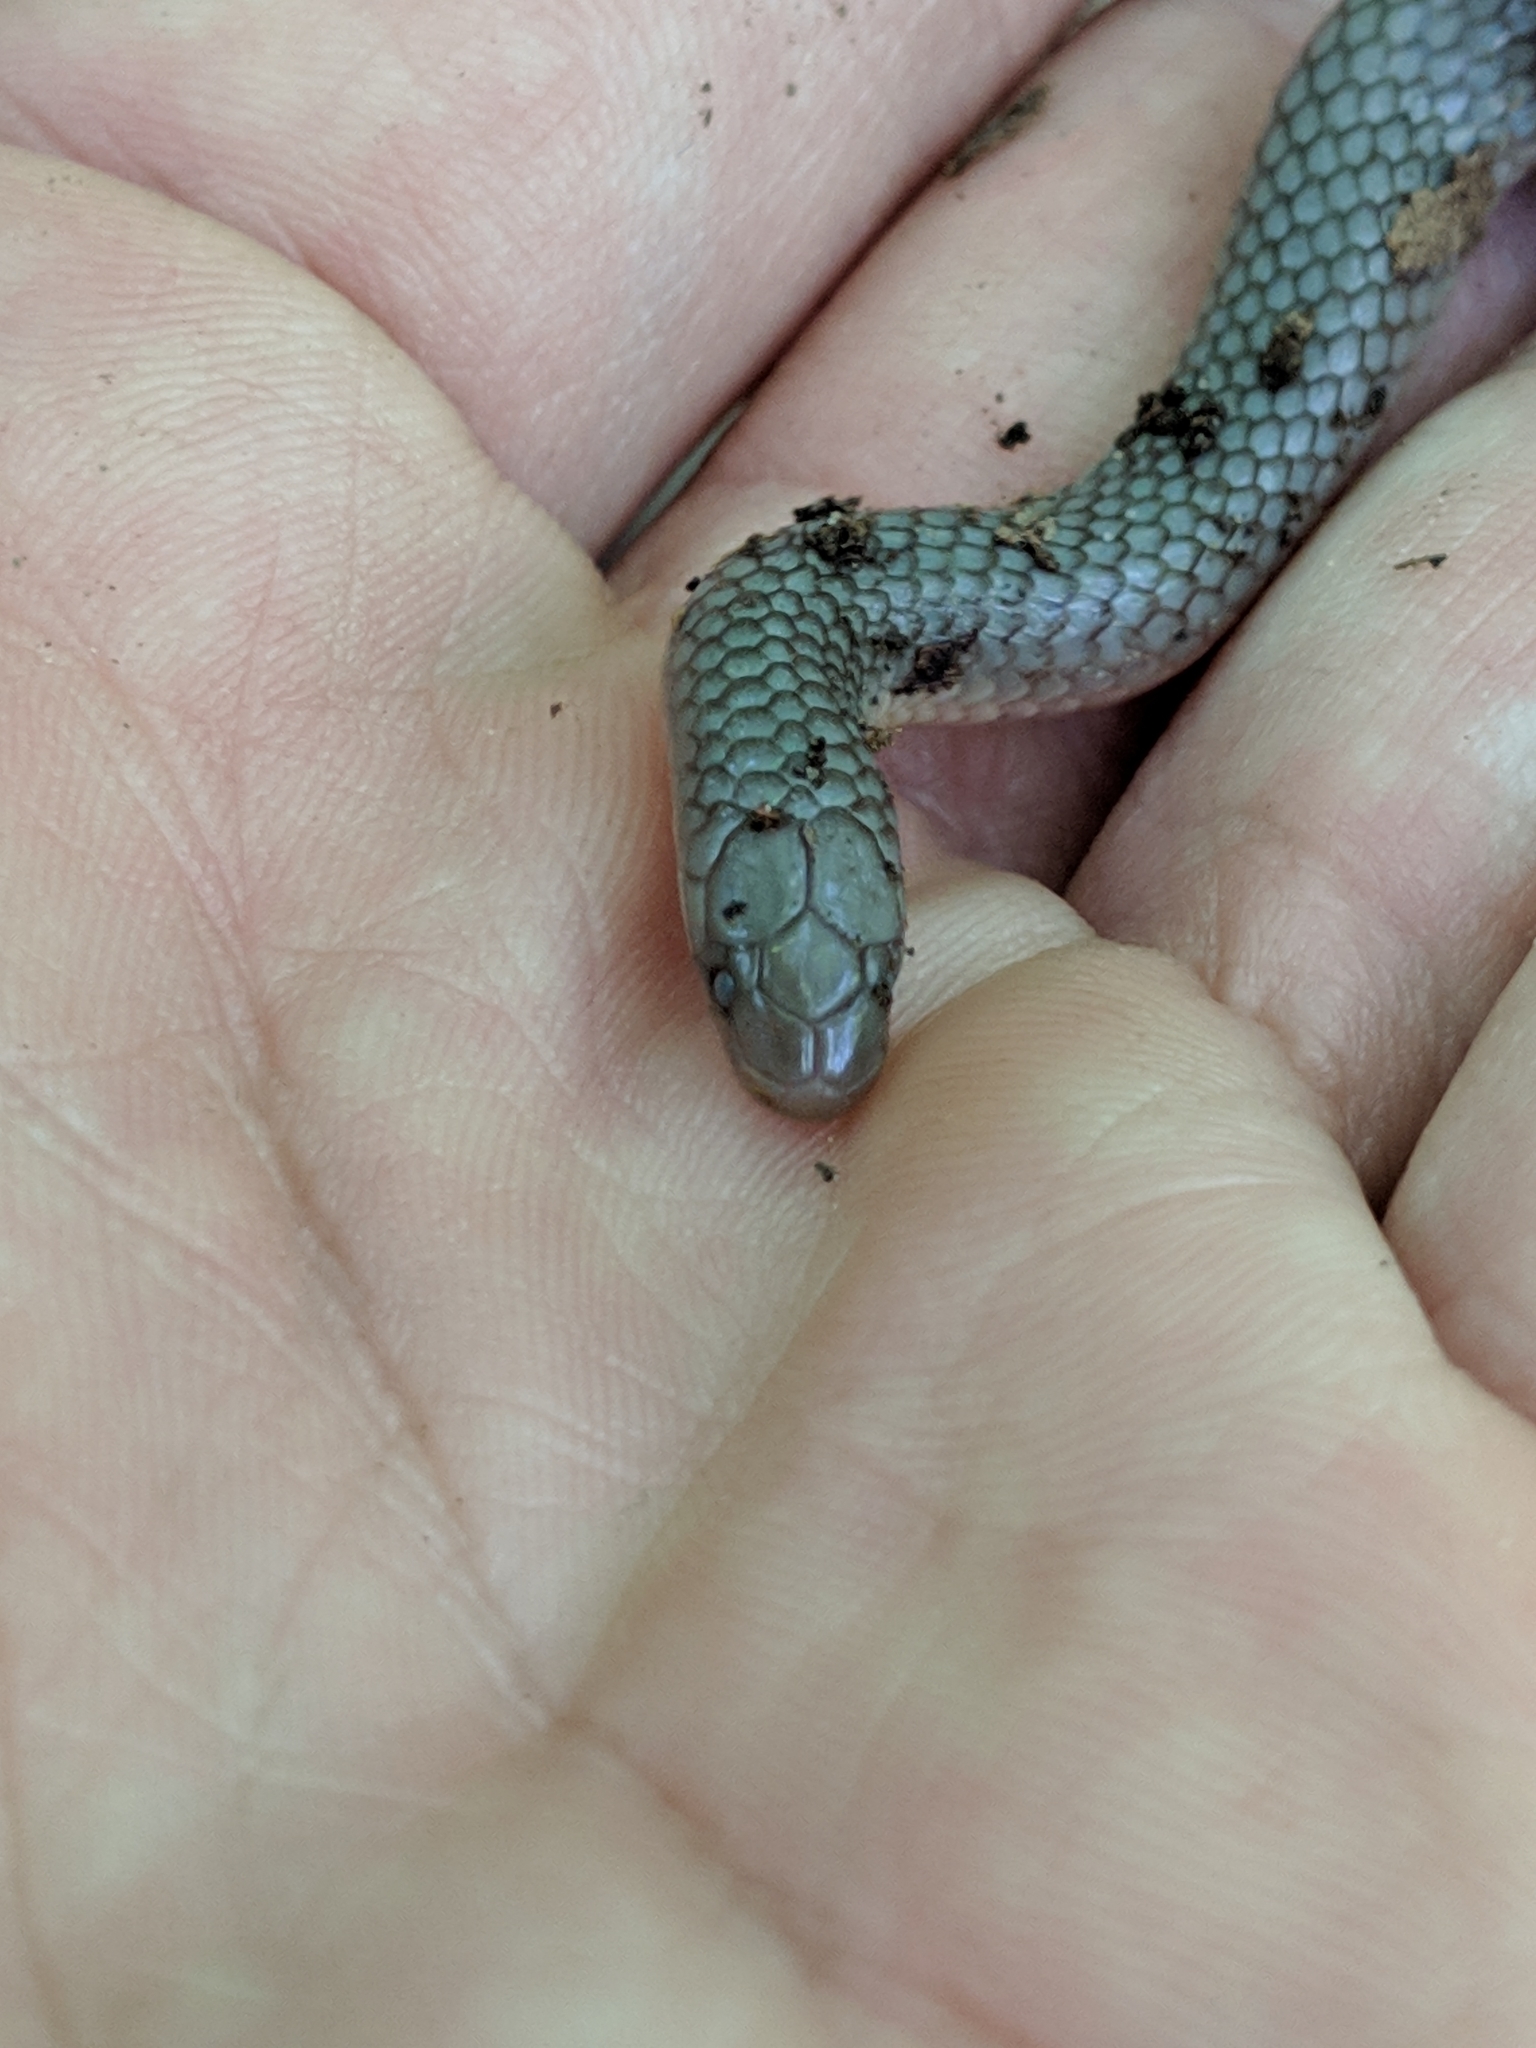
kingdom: Animalia
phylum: Chordata
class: Squamata
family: Colubridae
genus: Carphophis
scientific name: Carphophis amoenus
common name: Eastern worm snake
